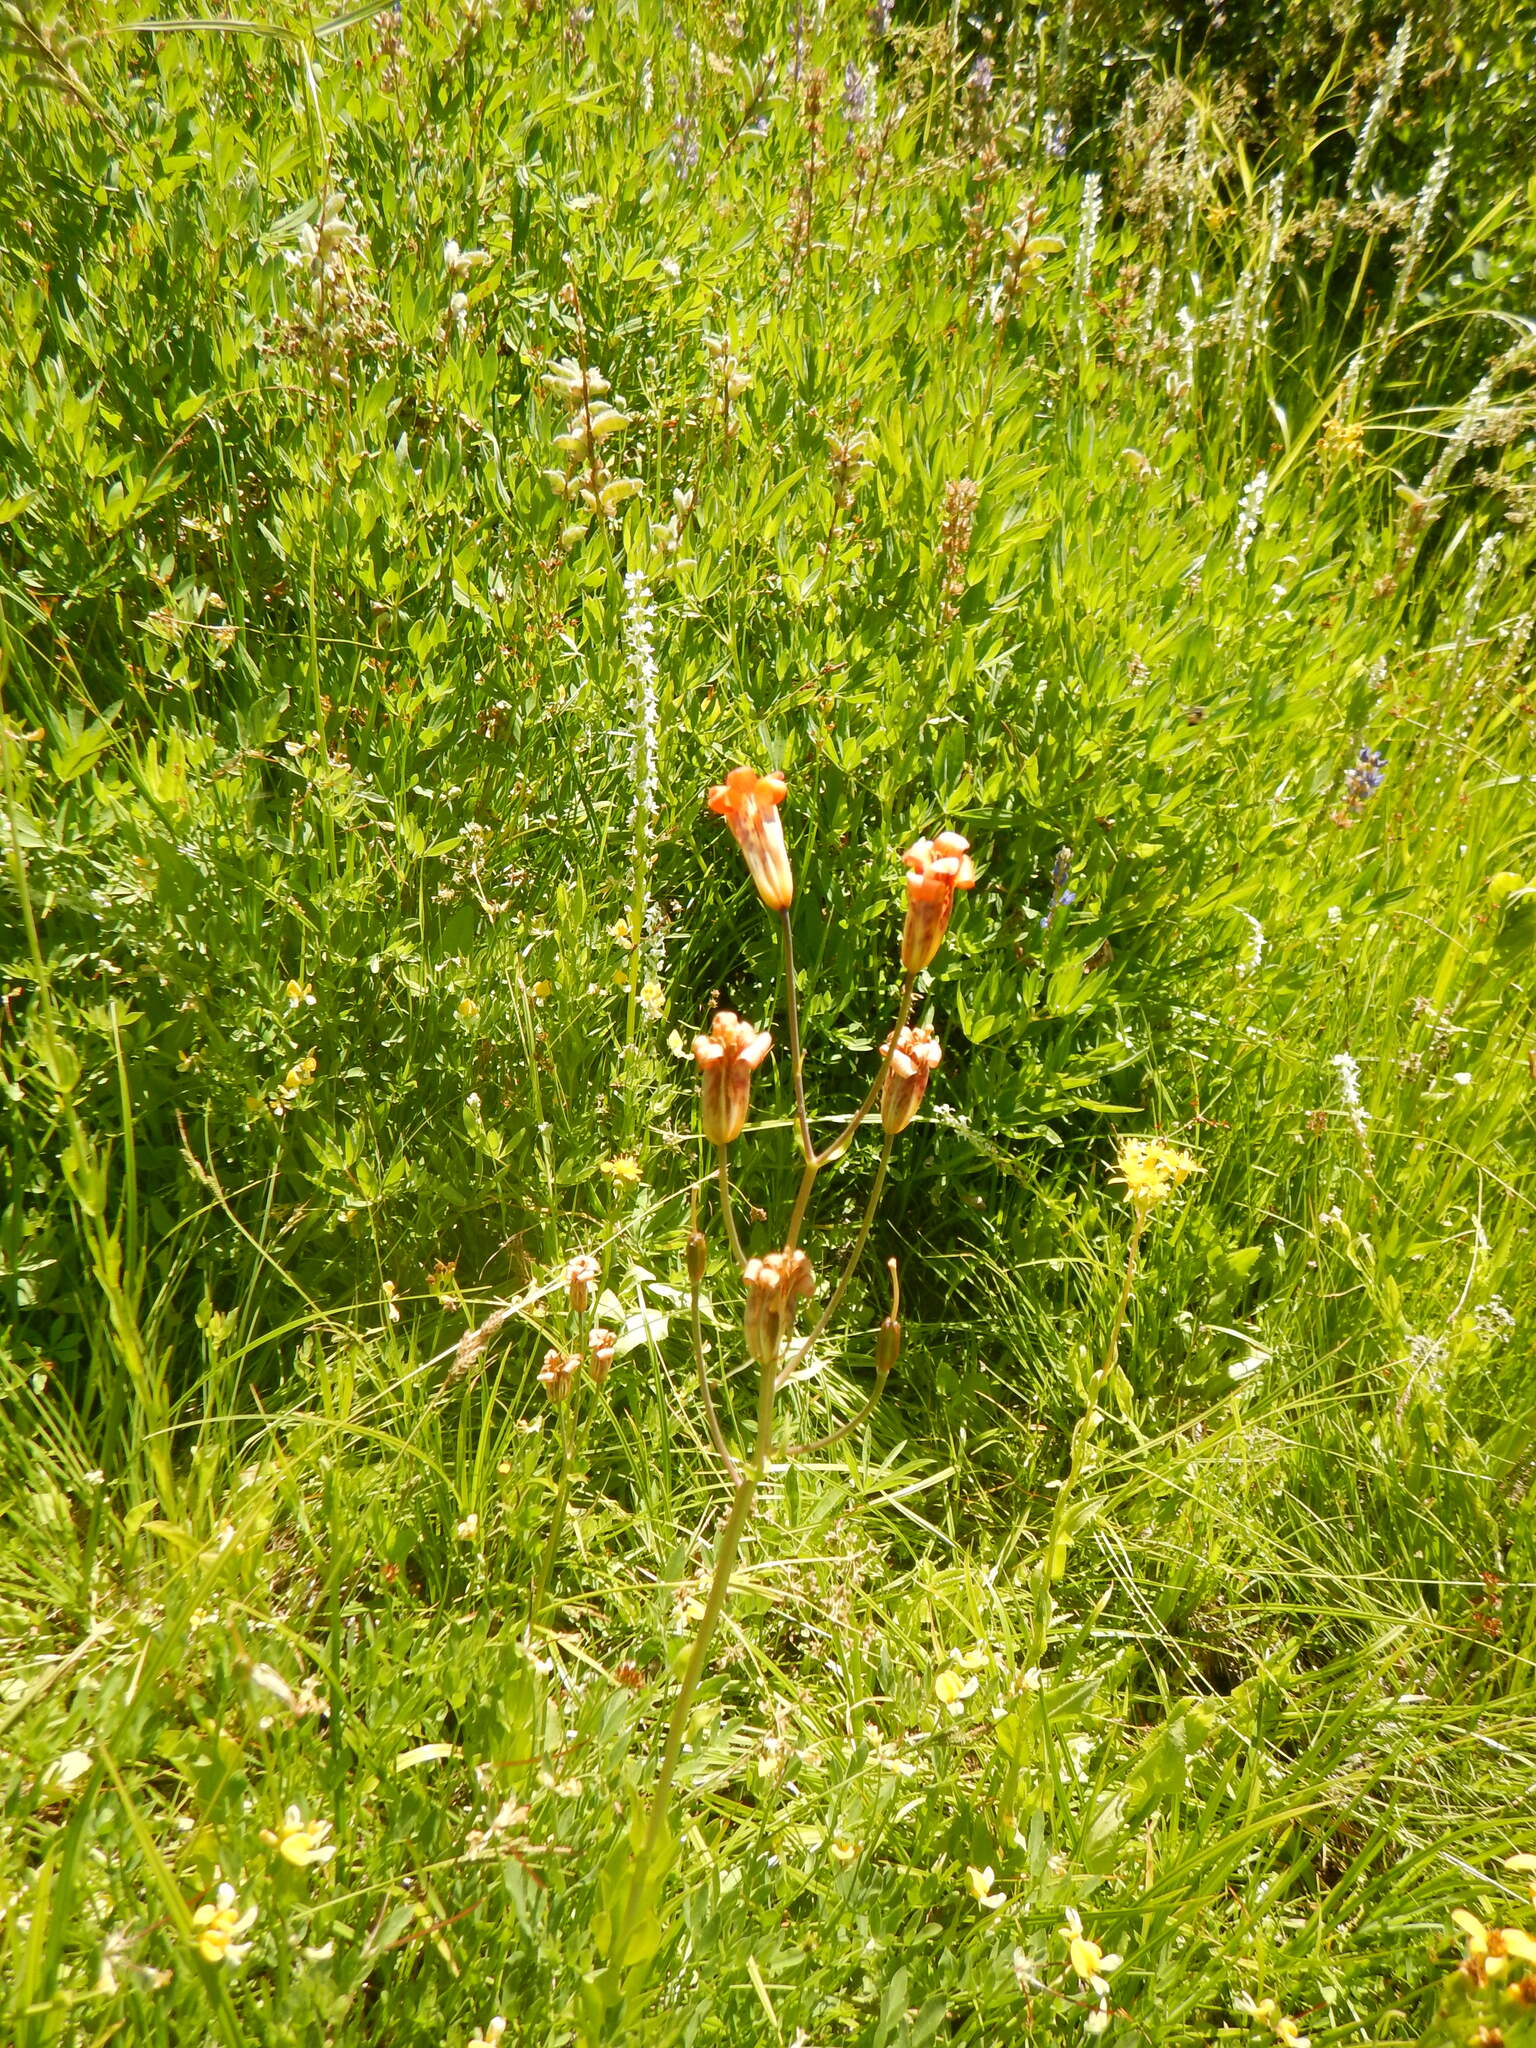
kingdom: Plantae
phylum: Tracheophyta
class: Liliopsida
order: Liliales
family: Liliaceae
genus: Lilium
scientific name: Lilium parvum
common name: Alpine lily
